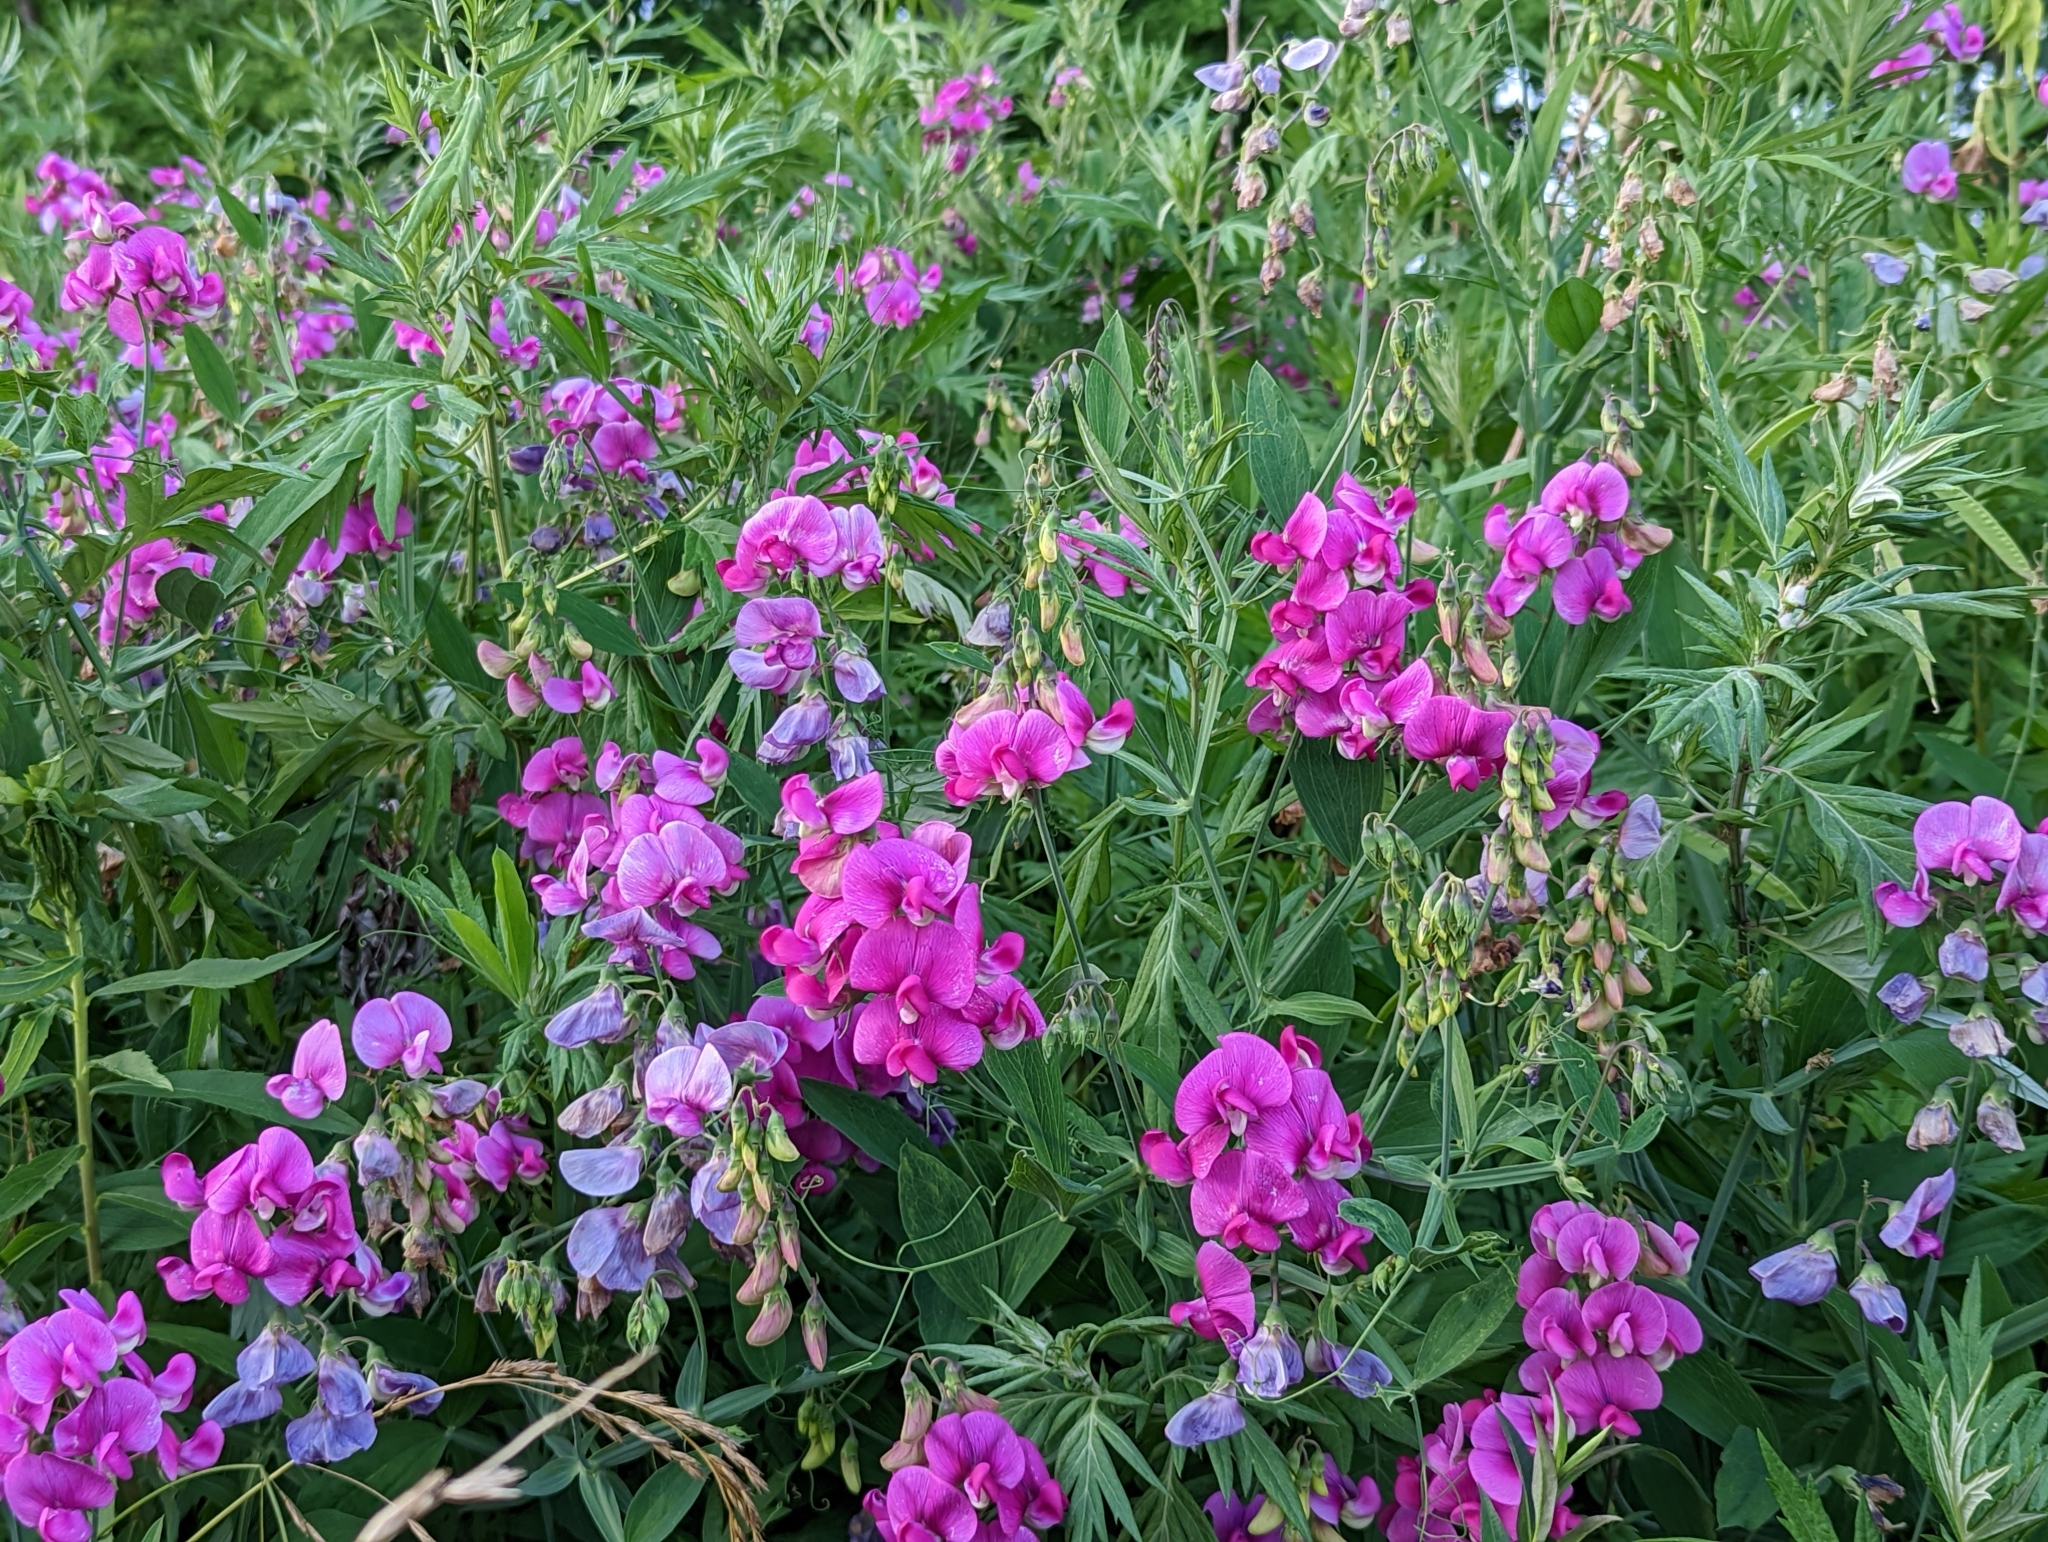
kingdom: Plantae
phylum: Tracheophyta
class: Magnoliopsida
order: Fabales
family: Fabaceae
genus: Lathyrus
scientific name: Lathyrus latifolius
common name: Perennial pea
